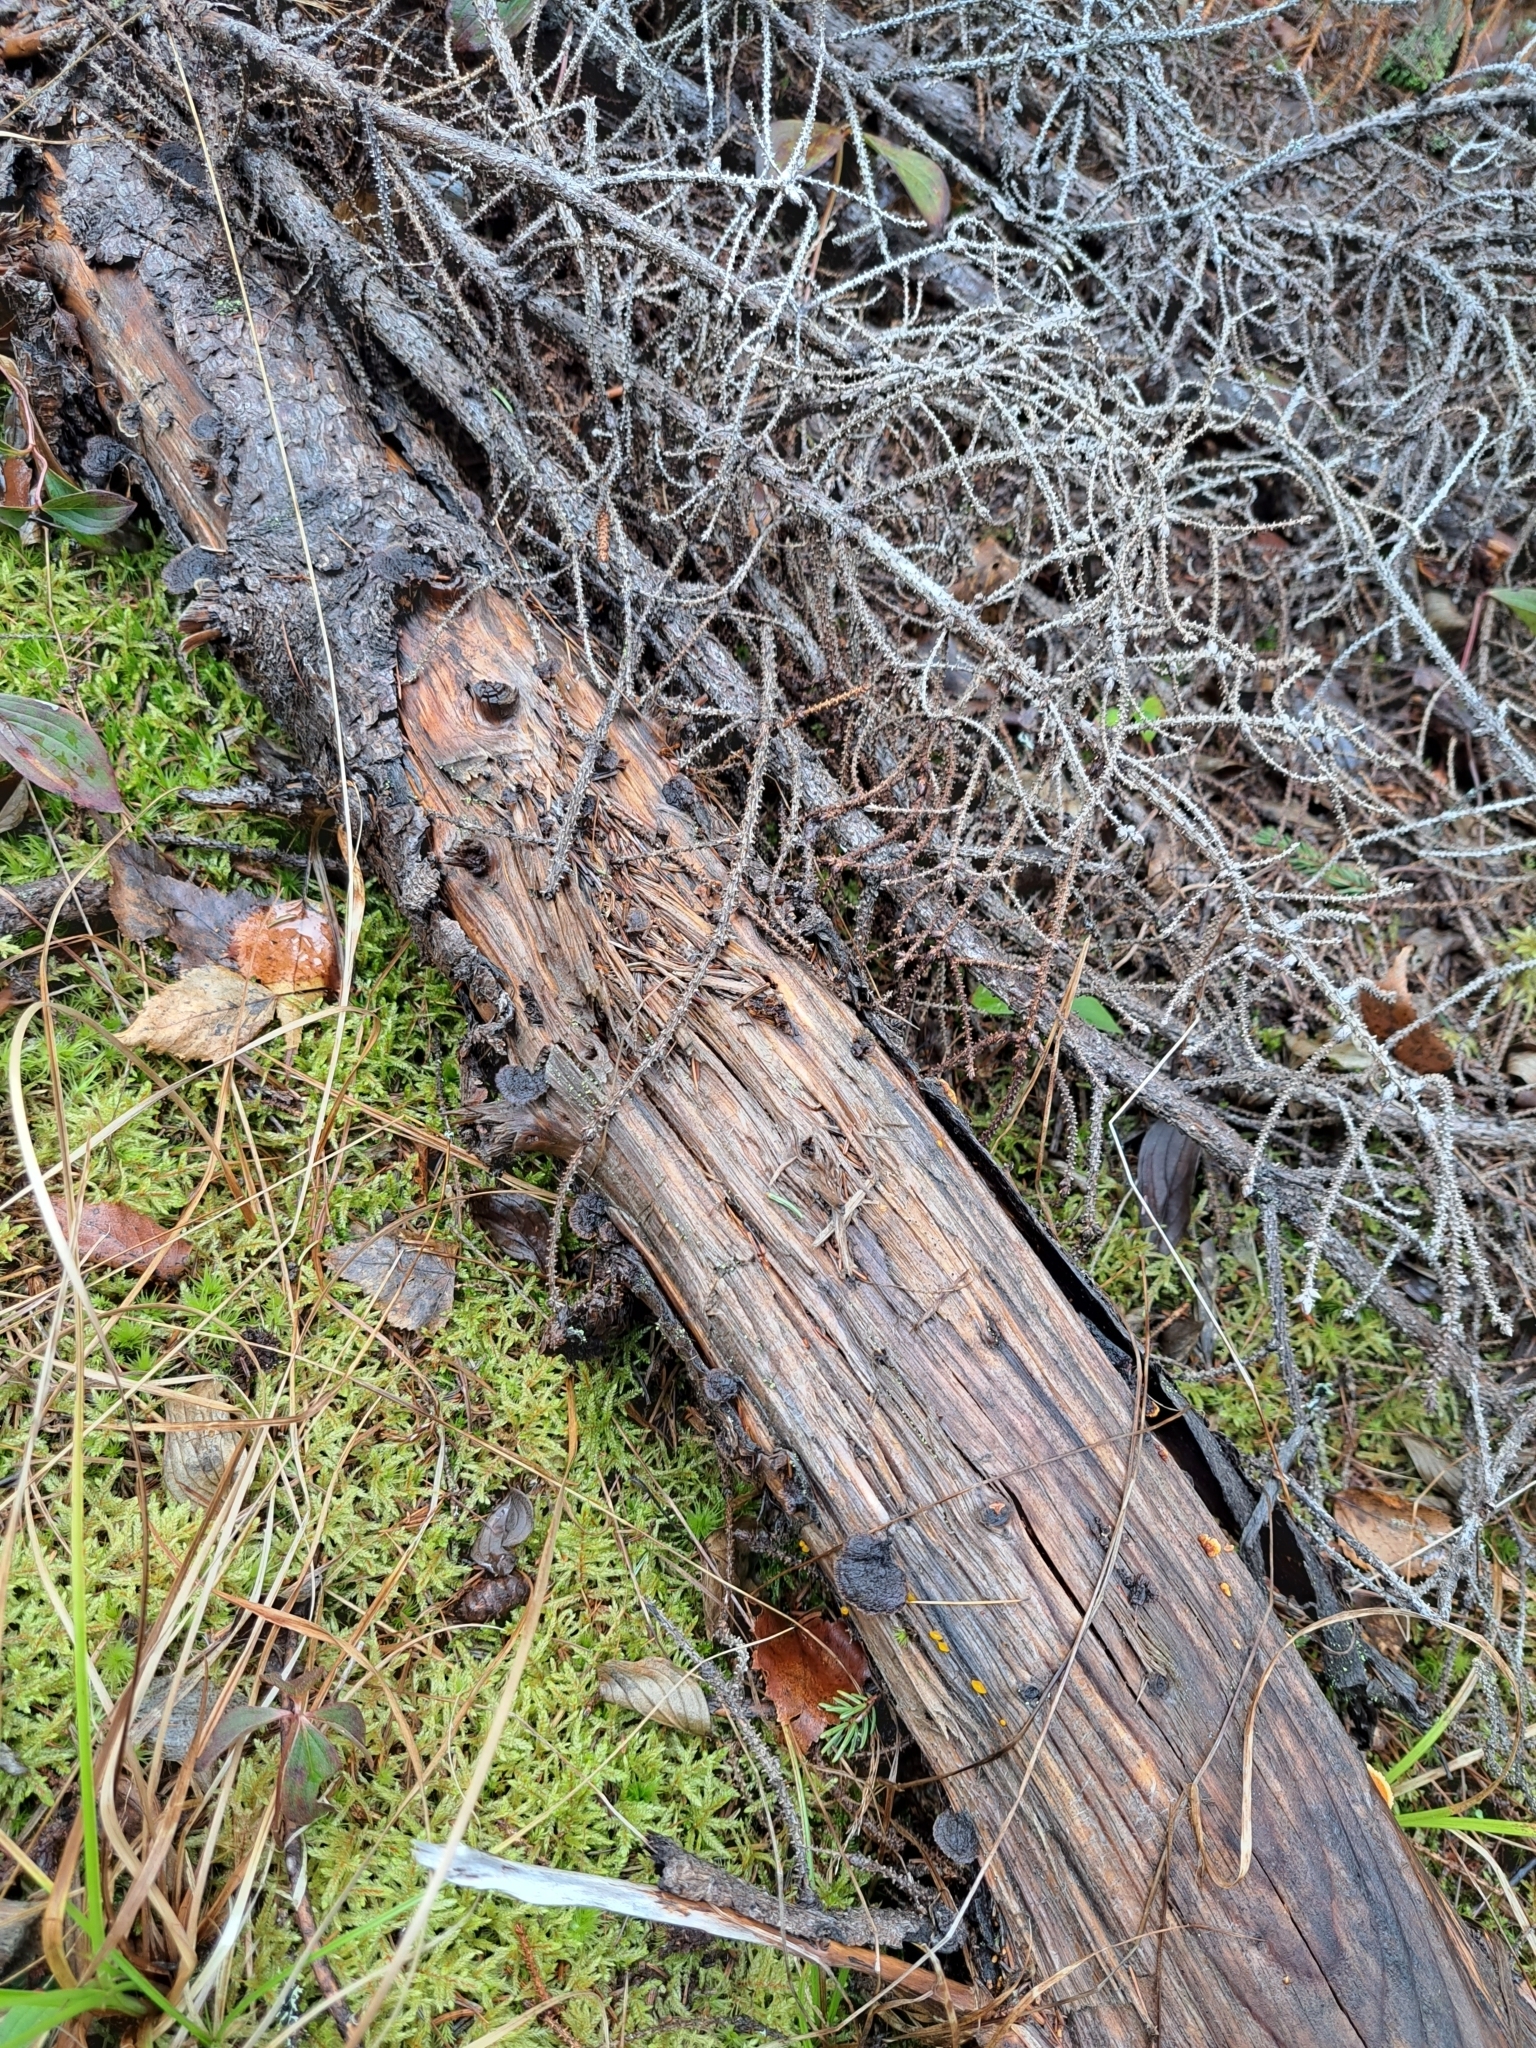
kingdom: Fungi
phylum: Basidiomycota
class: Agaricomycetes
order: Gloeophyllales
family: Gloeophyllaceae
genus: Gloeophyllum
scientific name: Gloeophyllum sepiarium
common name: Conifer mazegill
